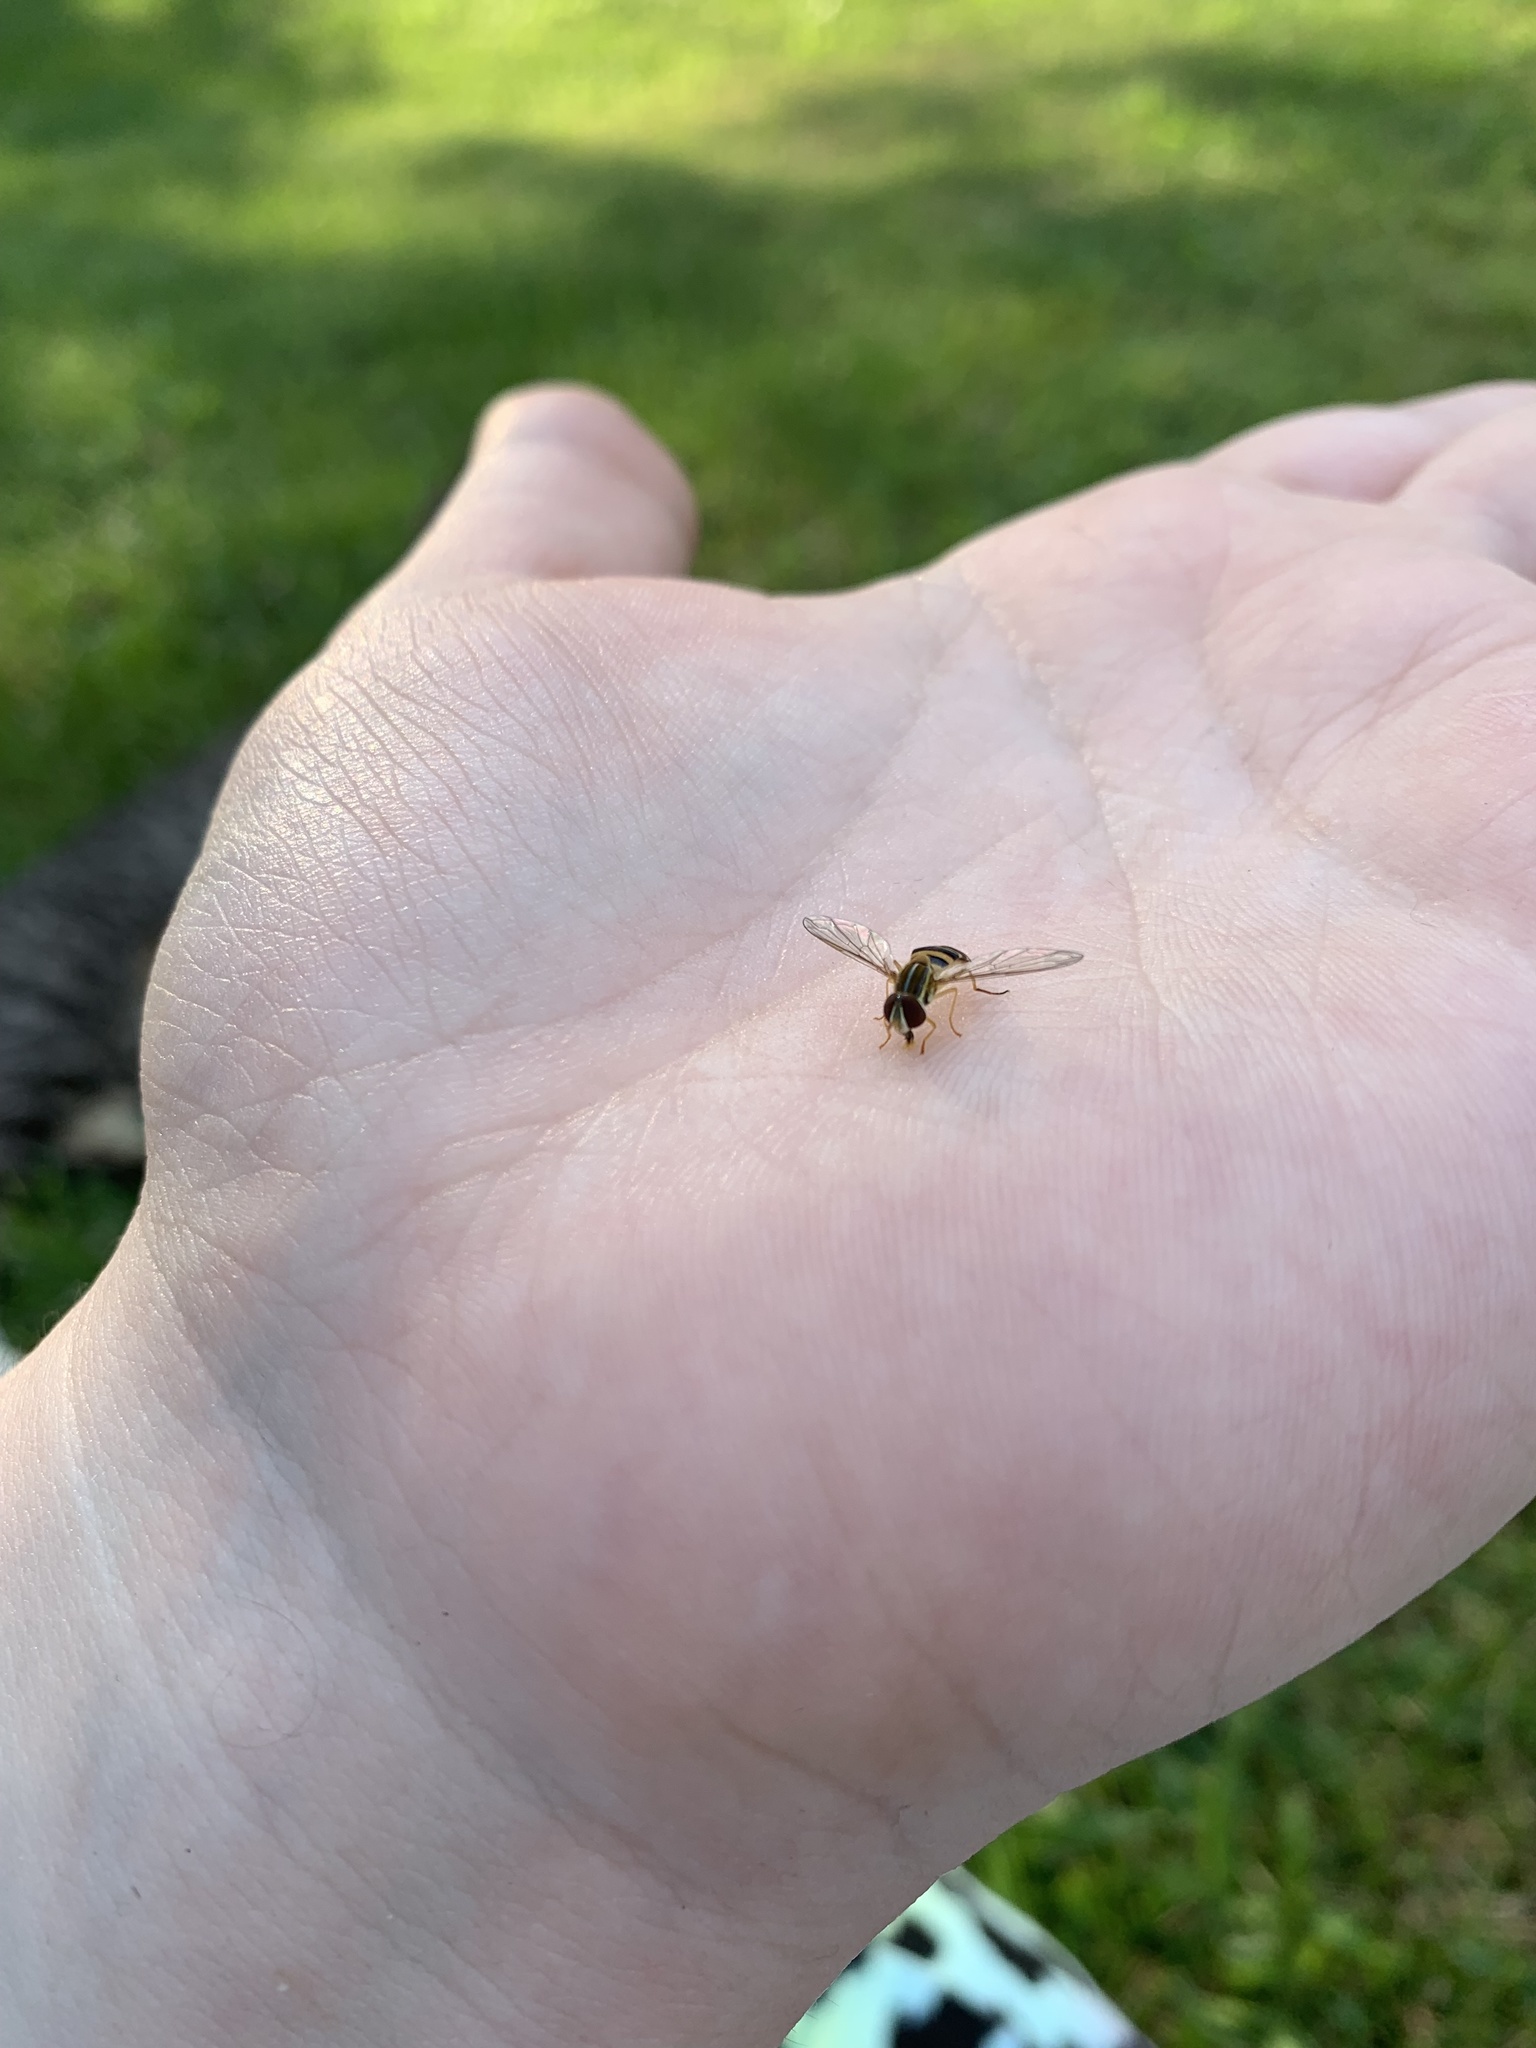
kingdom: Animalia
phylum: Arthropoda
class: Insecta
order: Diptera
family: Syrphidae
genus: Toxomerus
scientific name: Toxomerus politus
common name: Maize calligrapher
